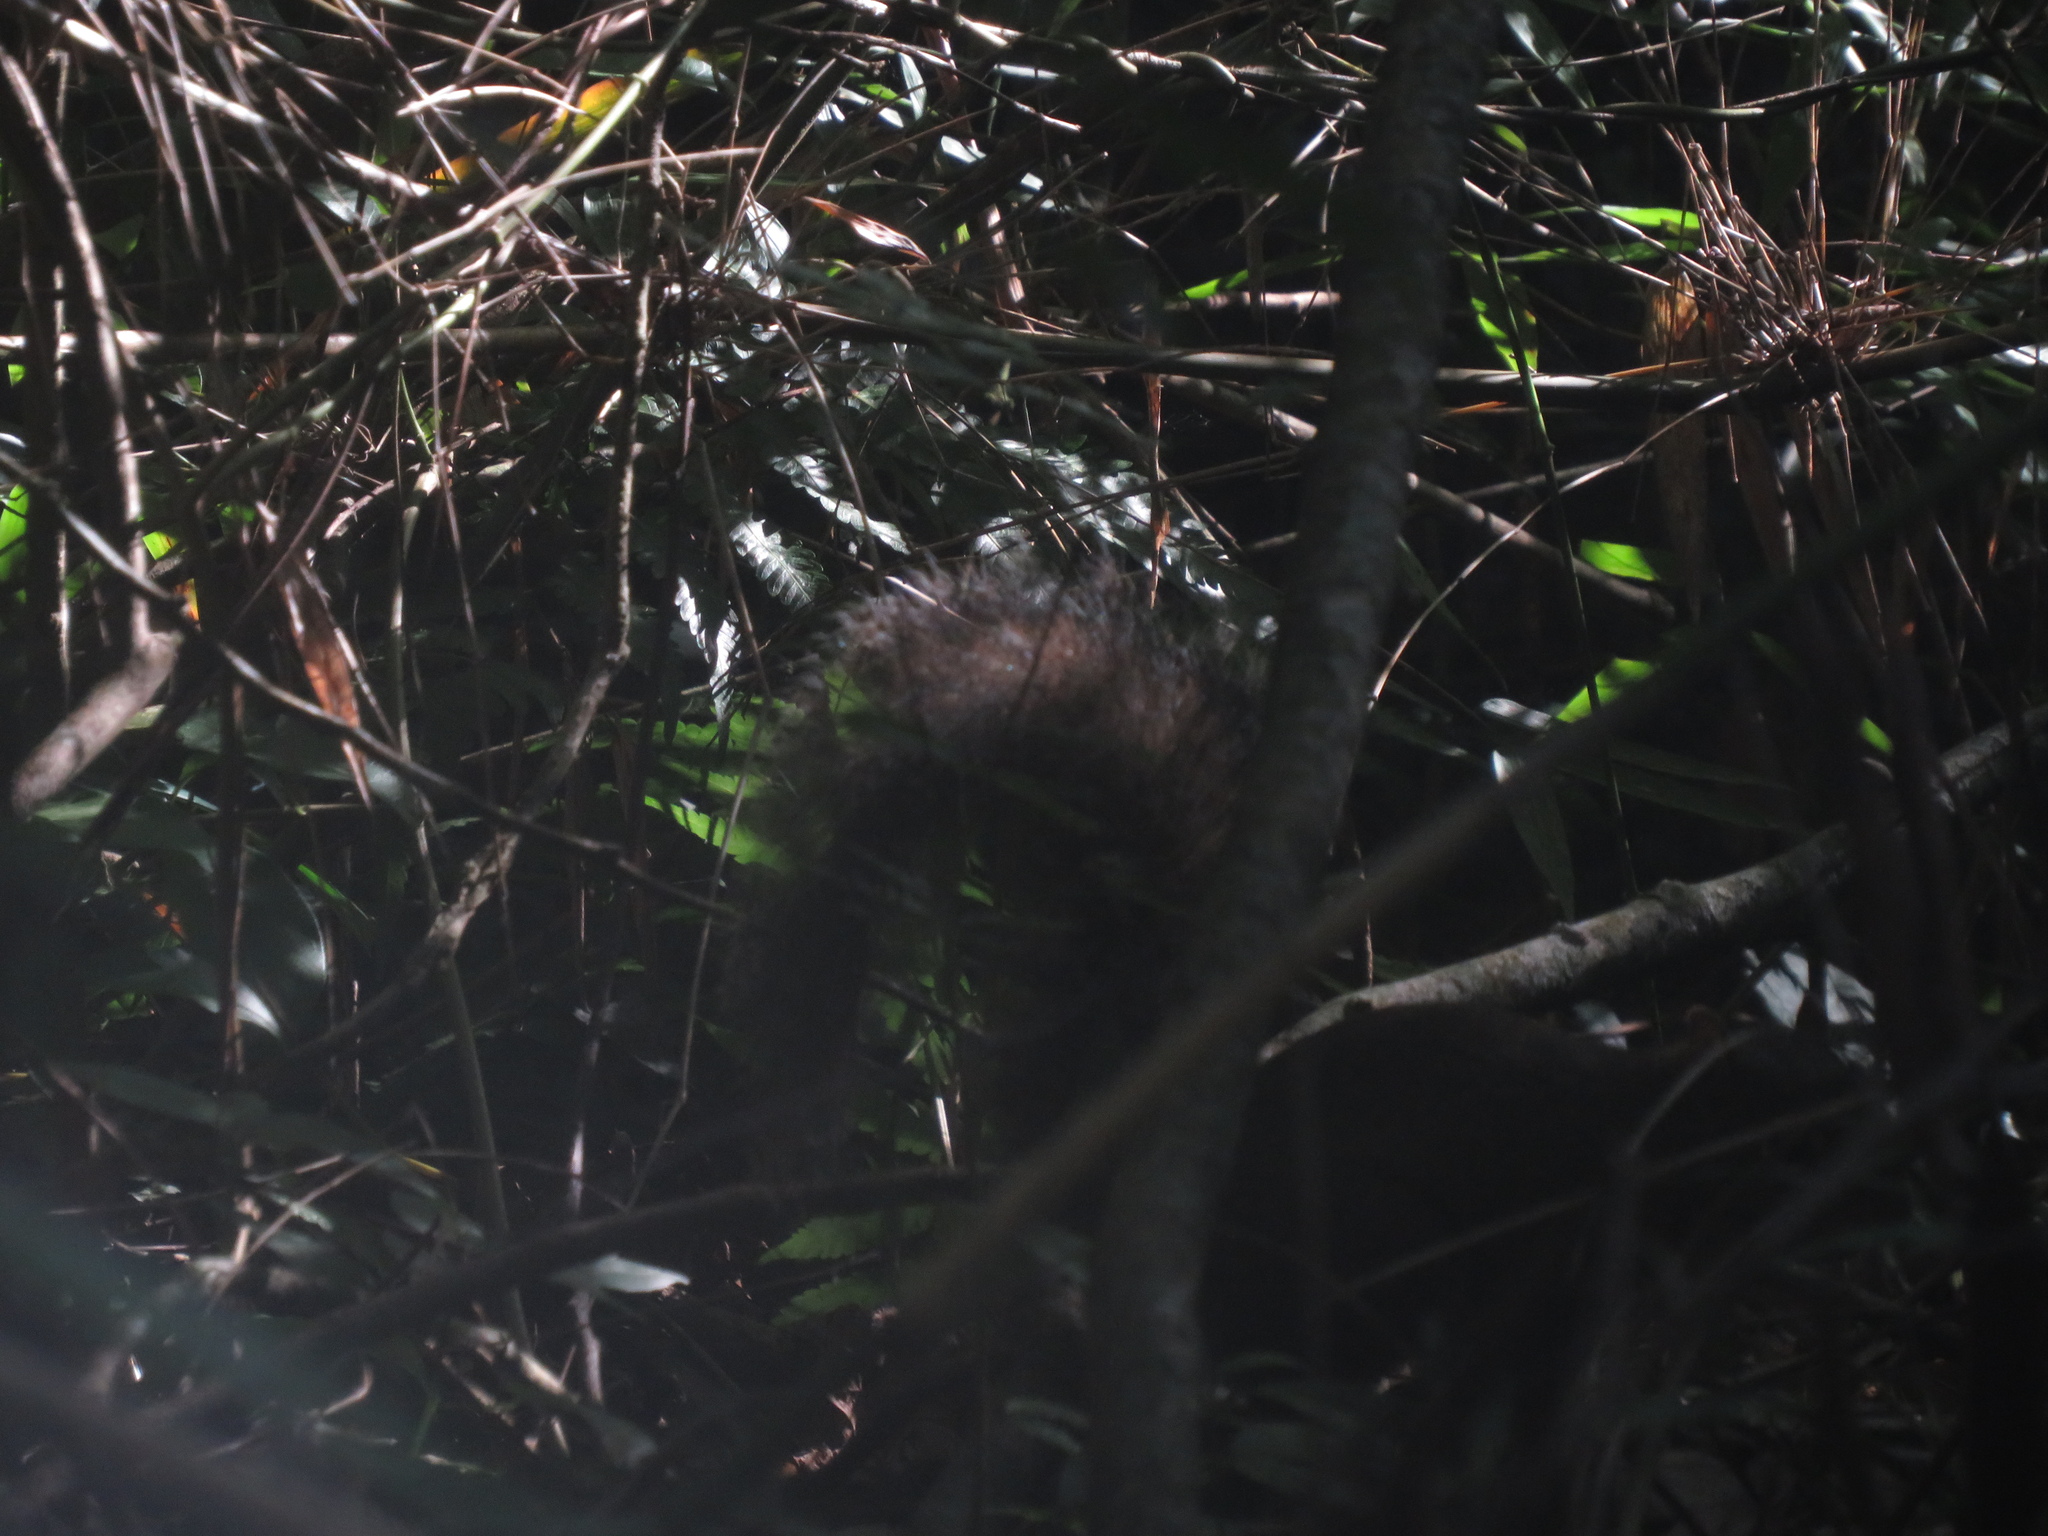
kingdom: Animalia
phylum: Chordata
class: Mammalia
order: Rodentia
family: Sciuridae
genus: Sciurus
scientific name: Sciurus aestuans
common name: Guianan squirrel
